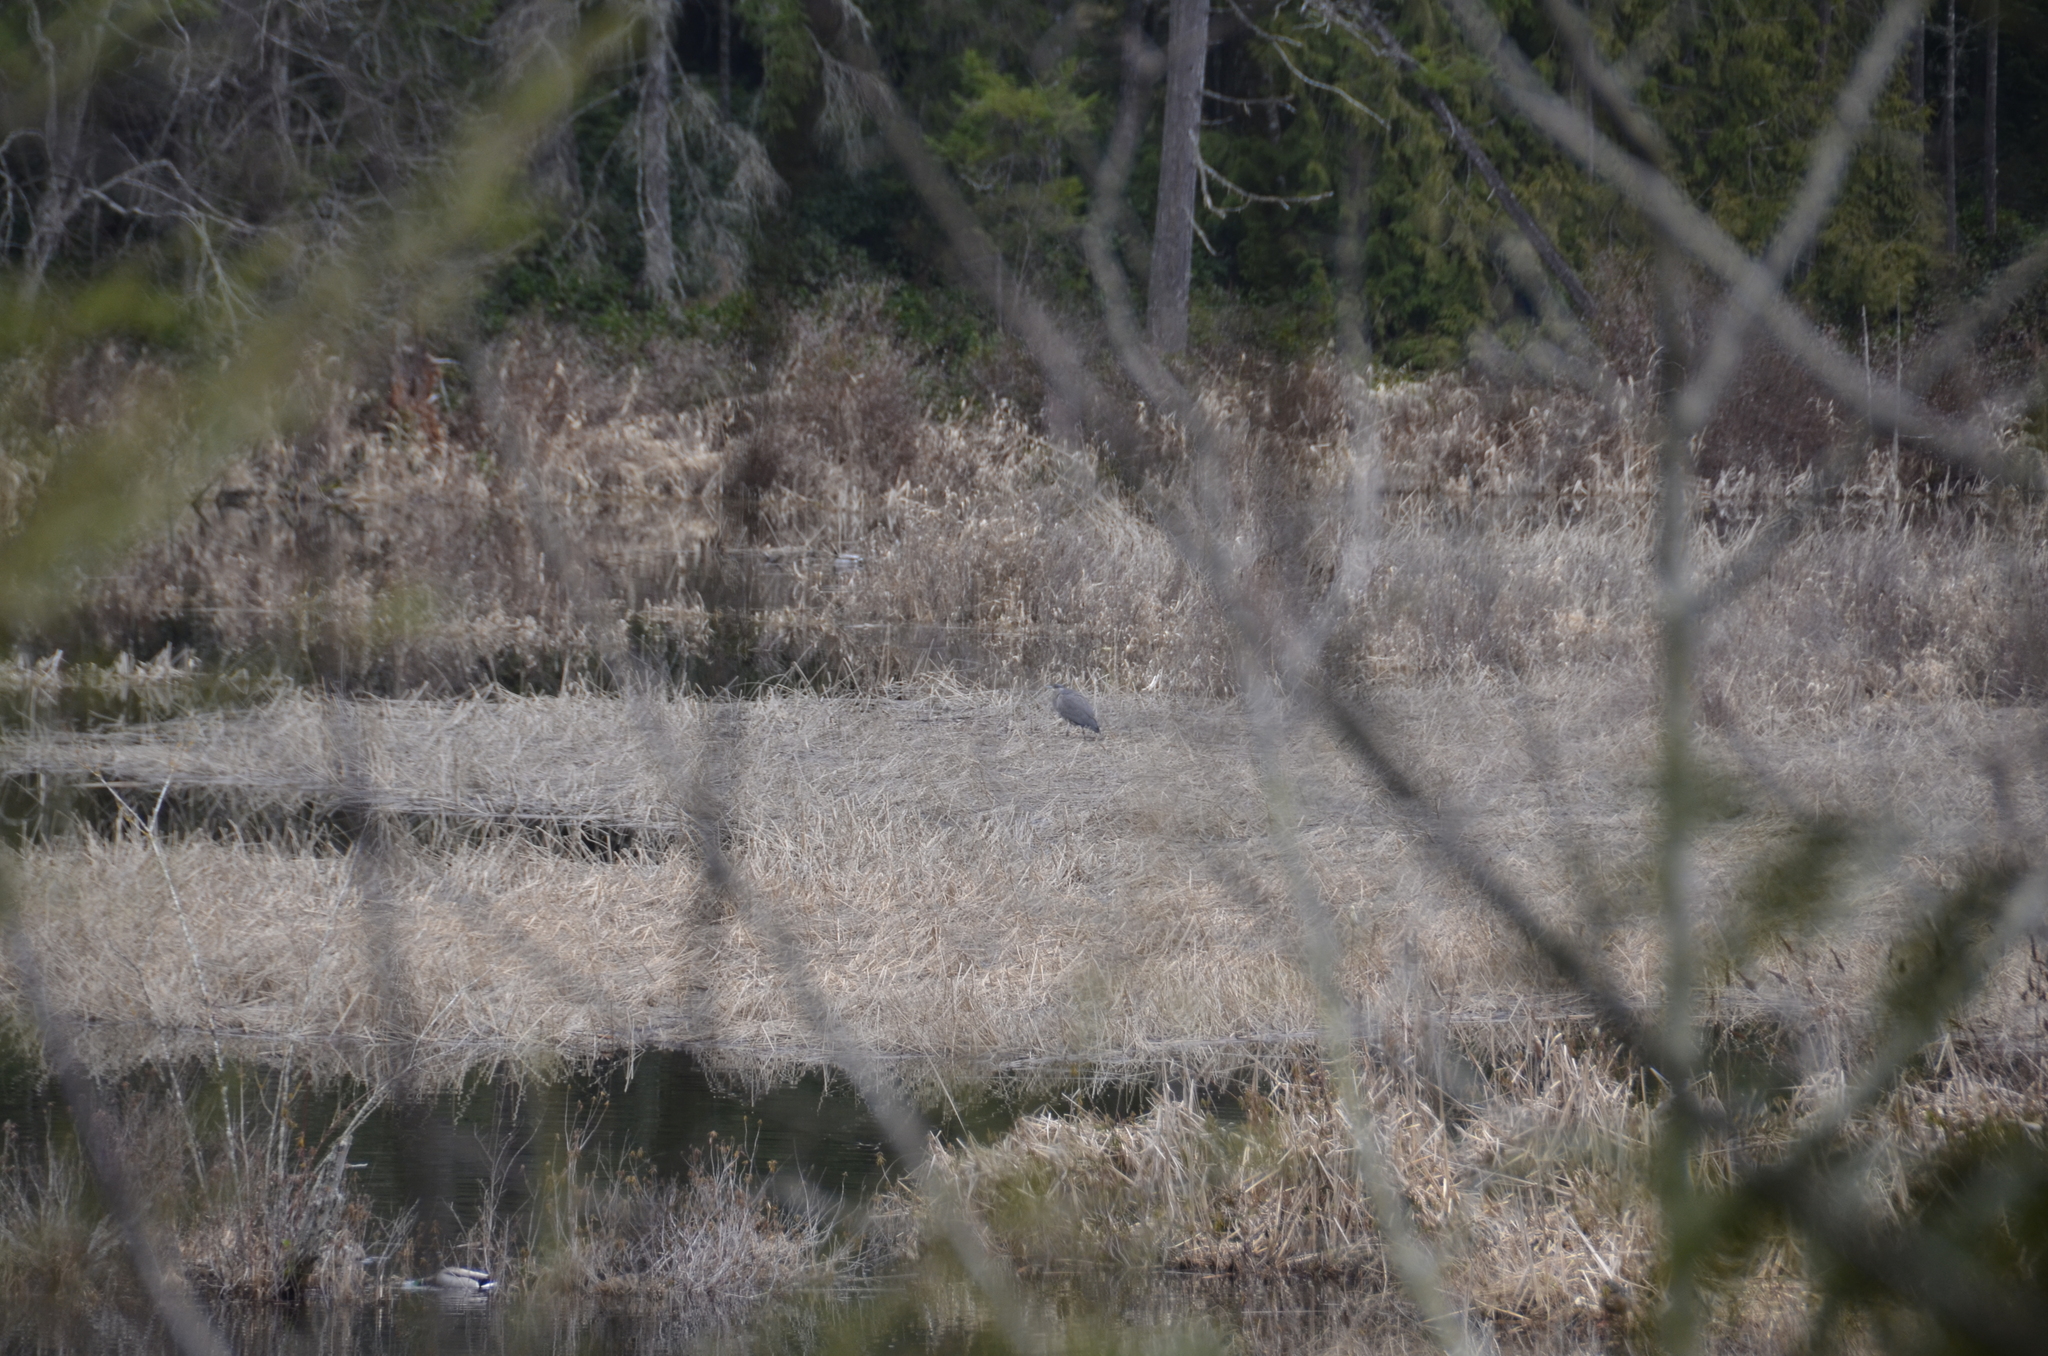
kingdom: Animalia
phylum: Chordata
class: Aves
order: Pelecaniformes
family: Ardeidae
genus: Ardea
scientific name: Ardea herodias
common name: Great blue heron
